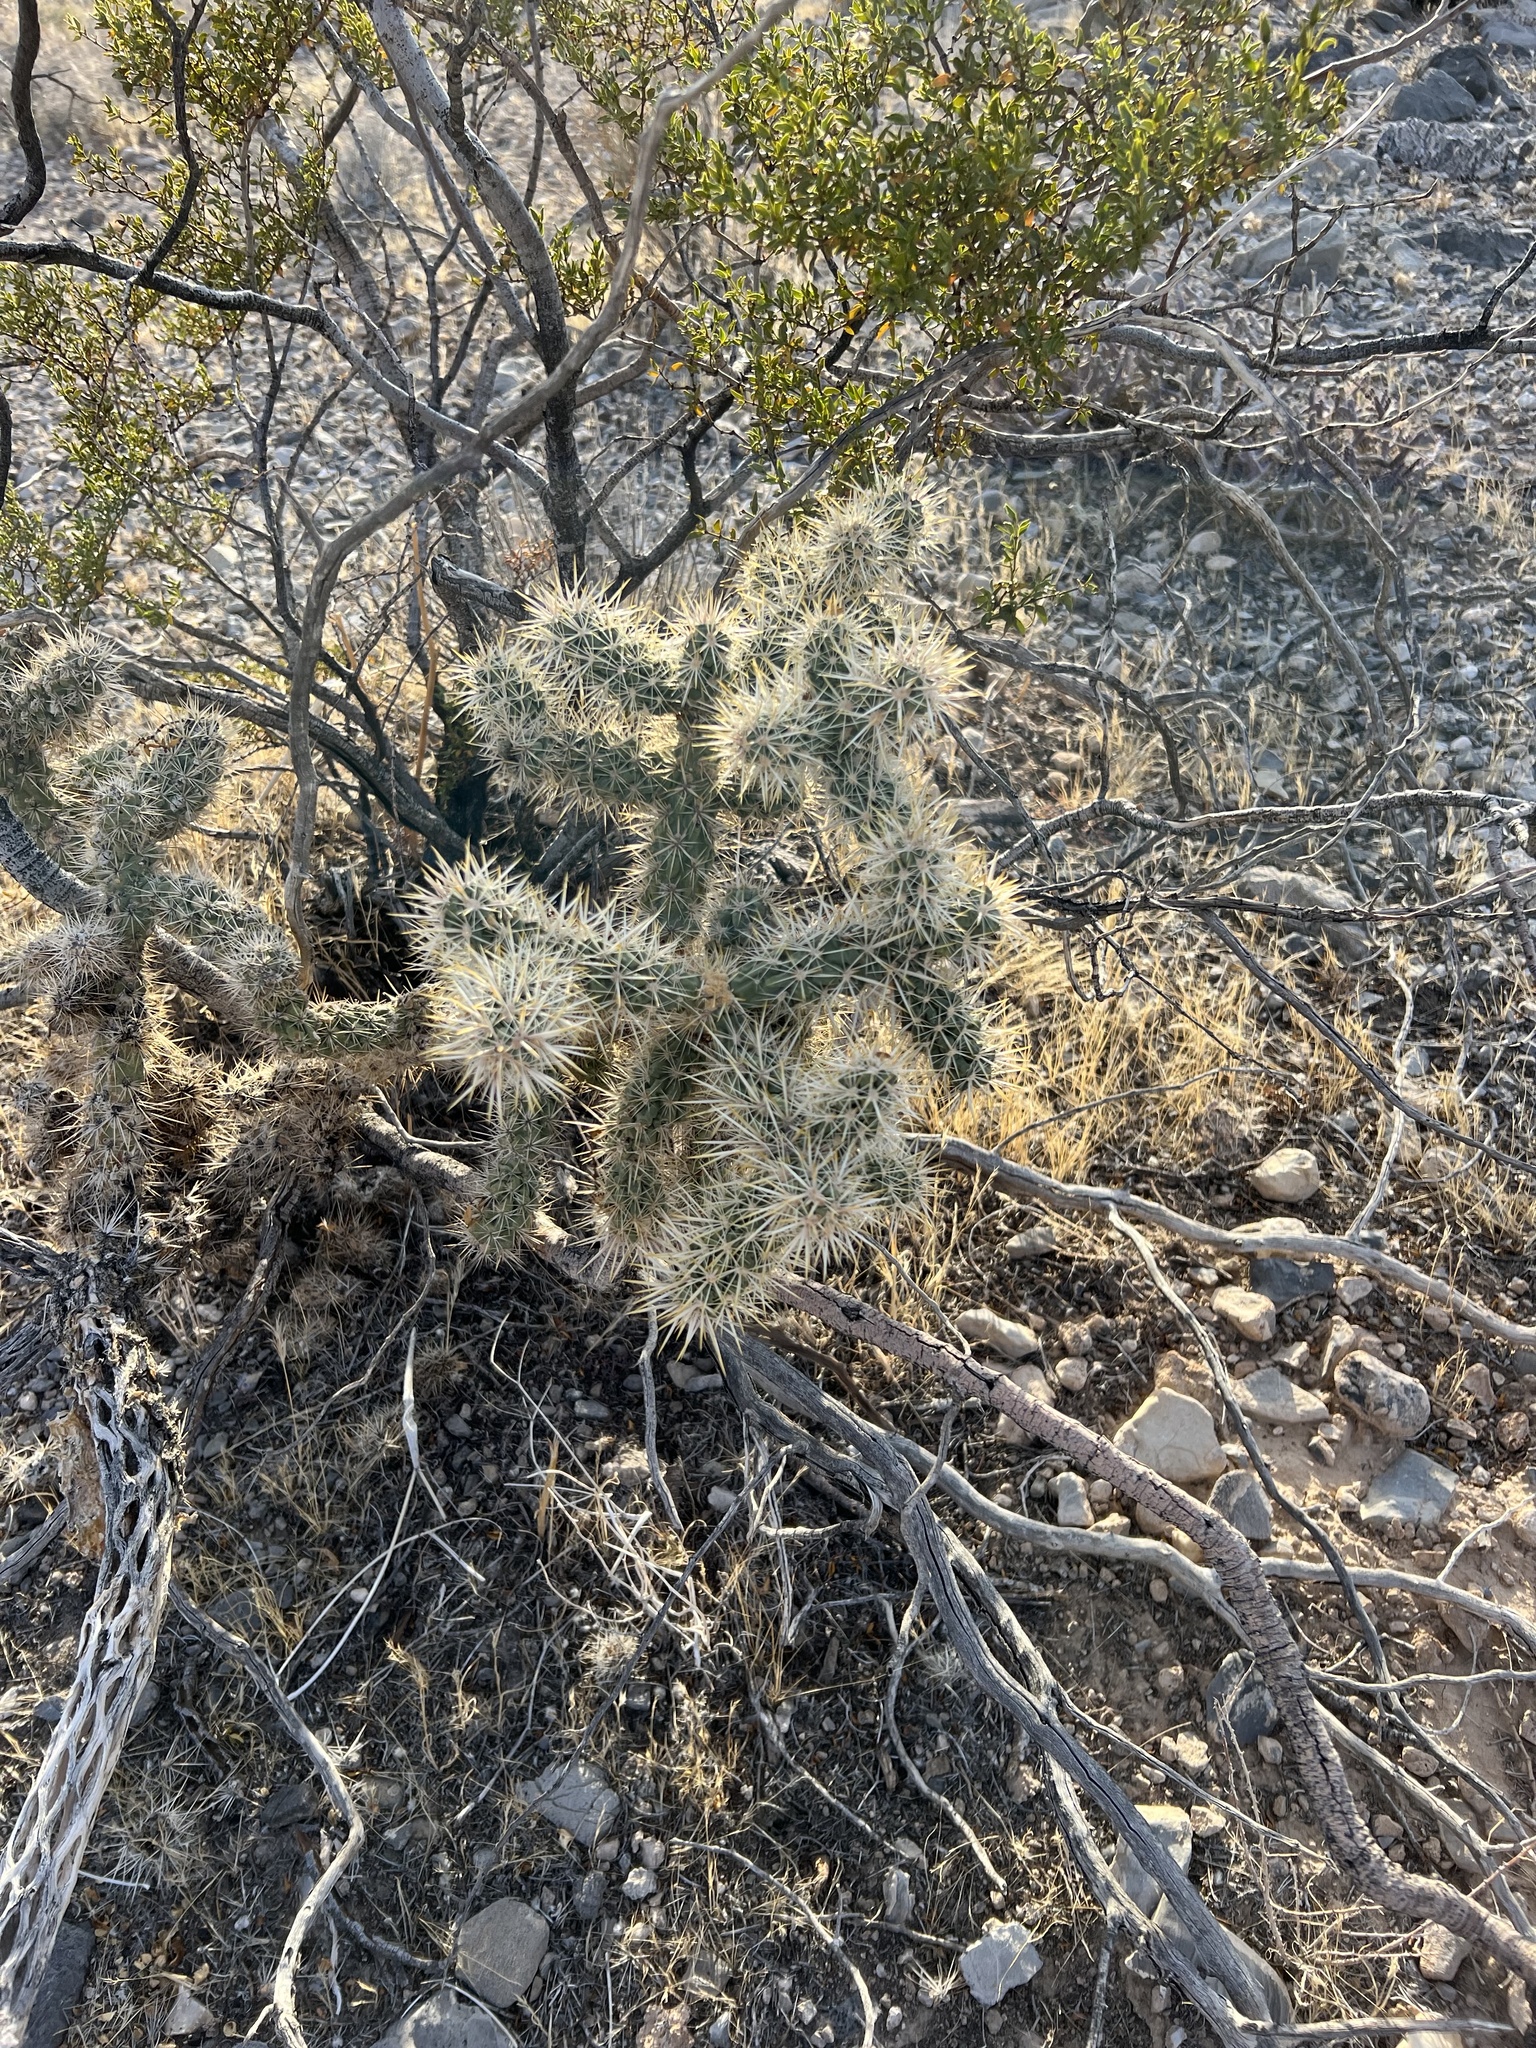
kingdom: Plantae
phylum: Tracheophyta
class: Magnoliopsida
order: Caryophyllales
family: Cactaceae
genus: Cylindropuntia
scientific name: Cylindropuntia echinocarpa
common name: Ground cholla
